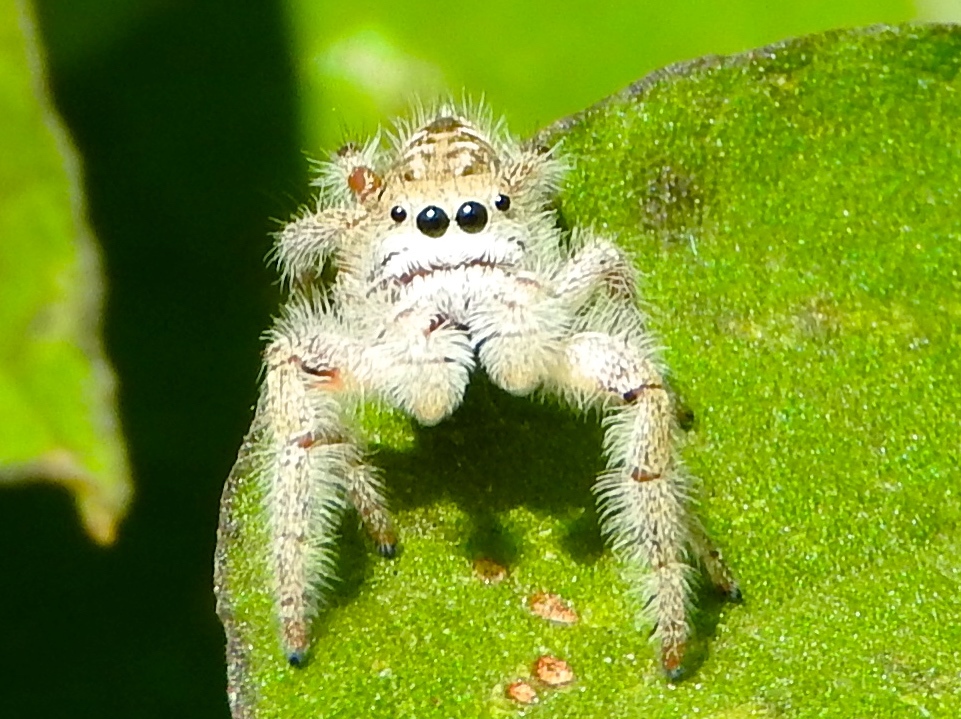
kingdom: Animalia
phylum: Arthropoda
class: Arachnida
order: Araneae
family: Salticidae
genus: Paraphidippus
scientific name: Paraphidippus fartilis
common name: Jumping spiders
